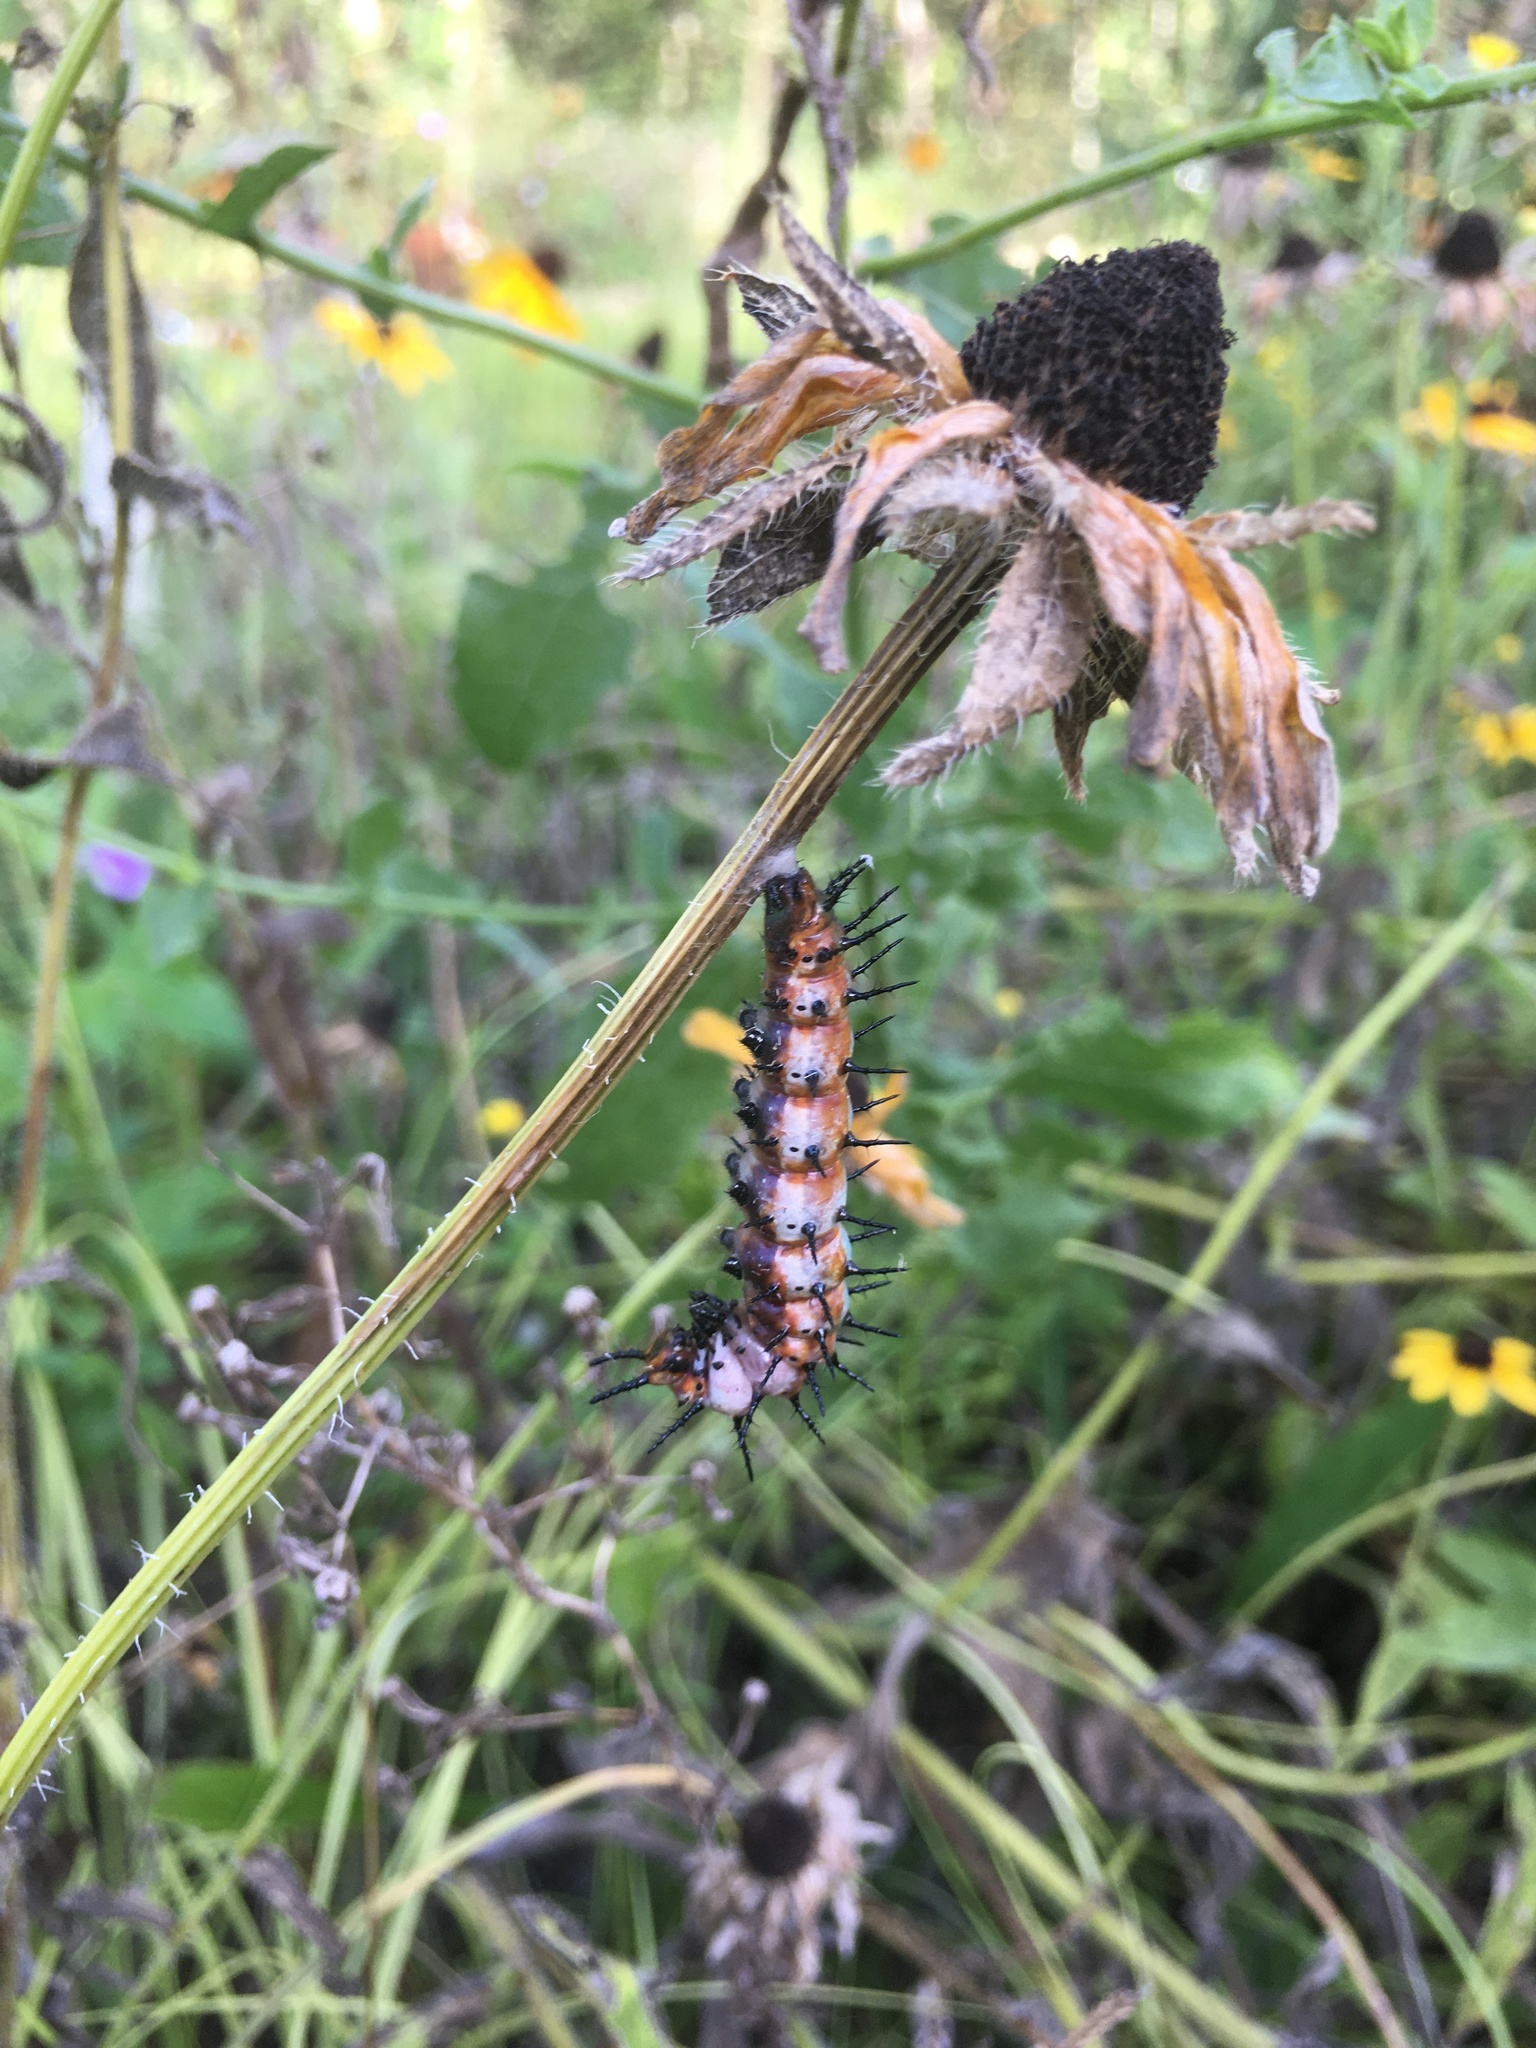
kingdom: Animalia
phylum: Arthropoda
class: Insecta
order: Lepidoptera
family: Nymphalidae
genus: Dione
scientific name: Dione vanillae
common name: Gulf fritillary
